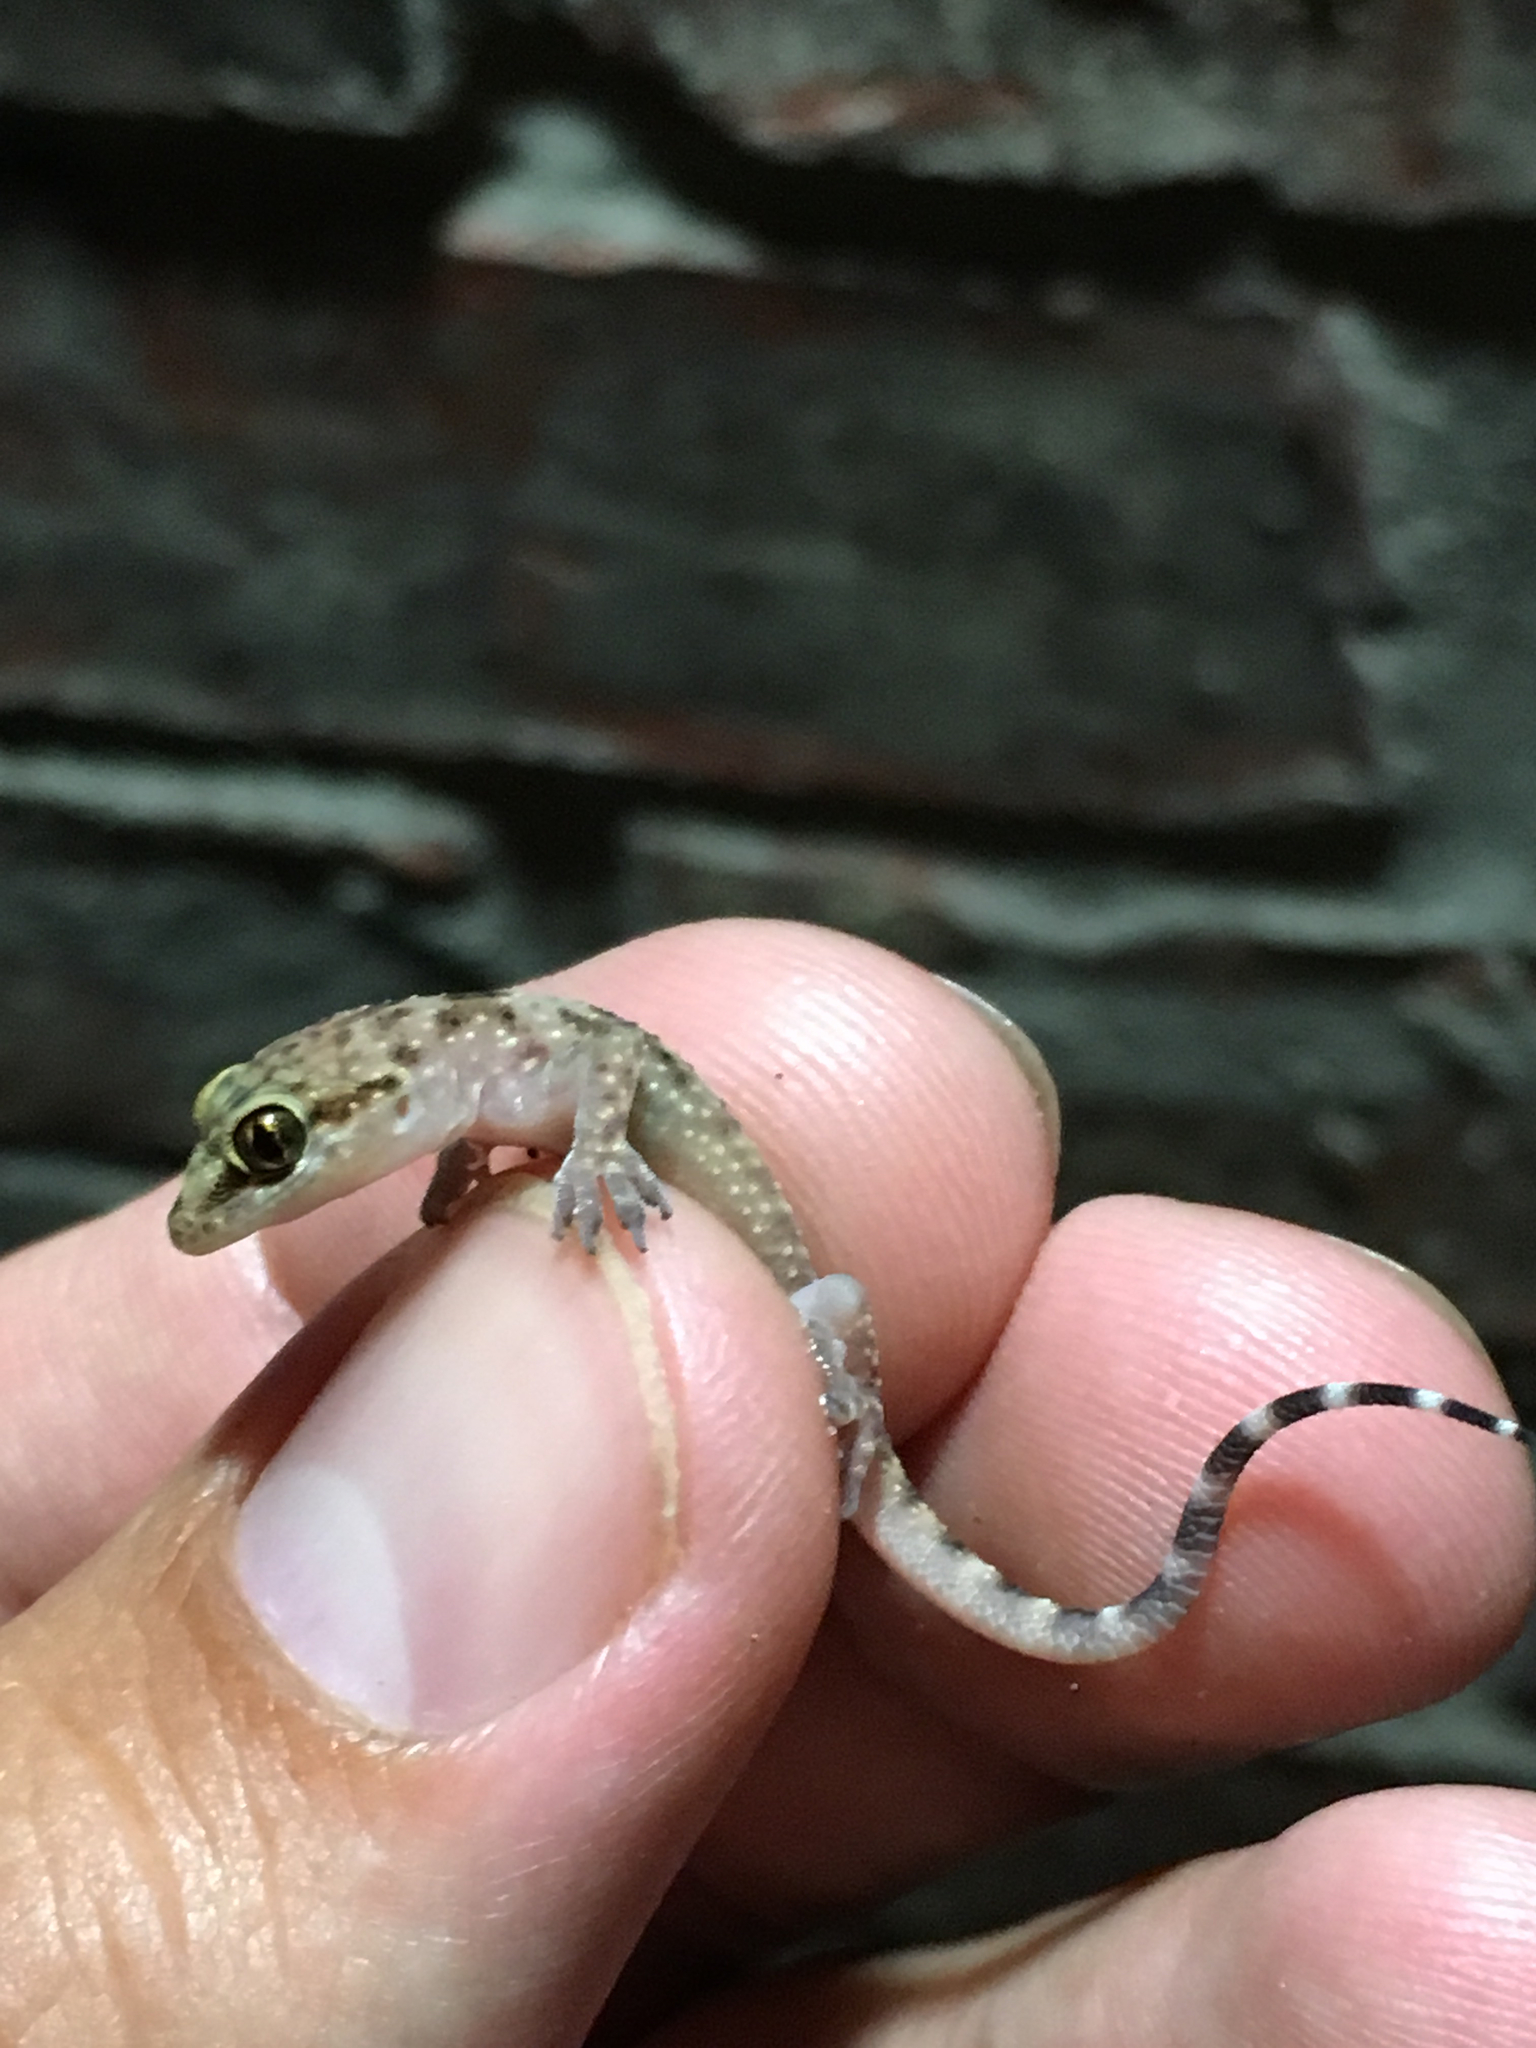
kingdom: Animalia
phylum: Chordata
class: Squamata
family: Gekkonidae
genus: Hemidactylus
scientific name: Hemidactylus turcicus
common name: Turkish gecko
